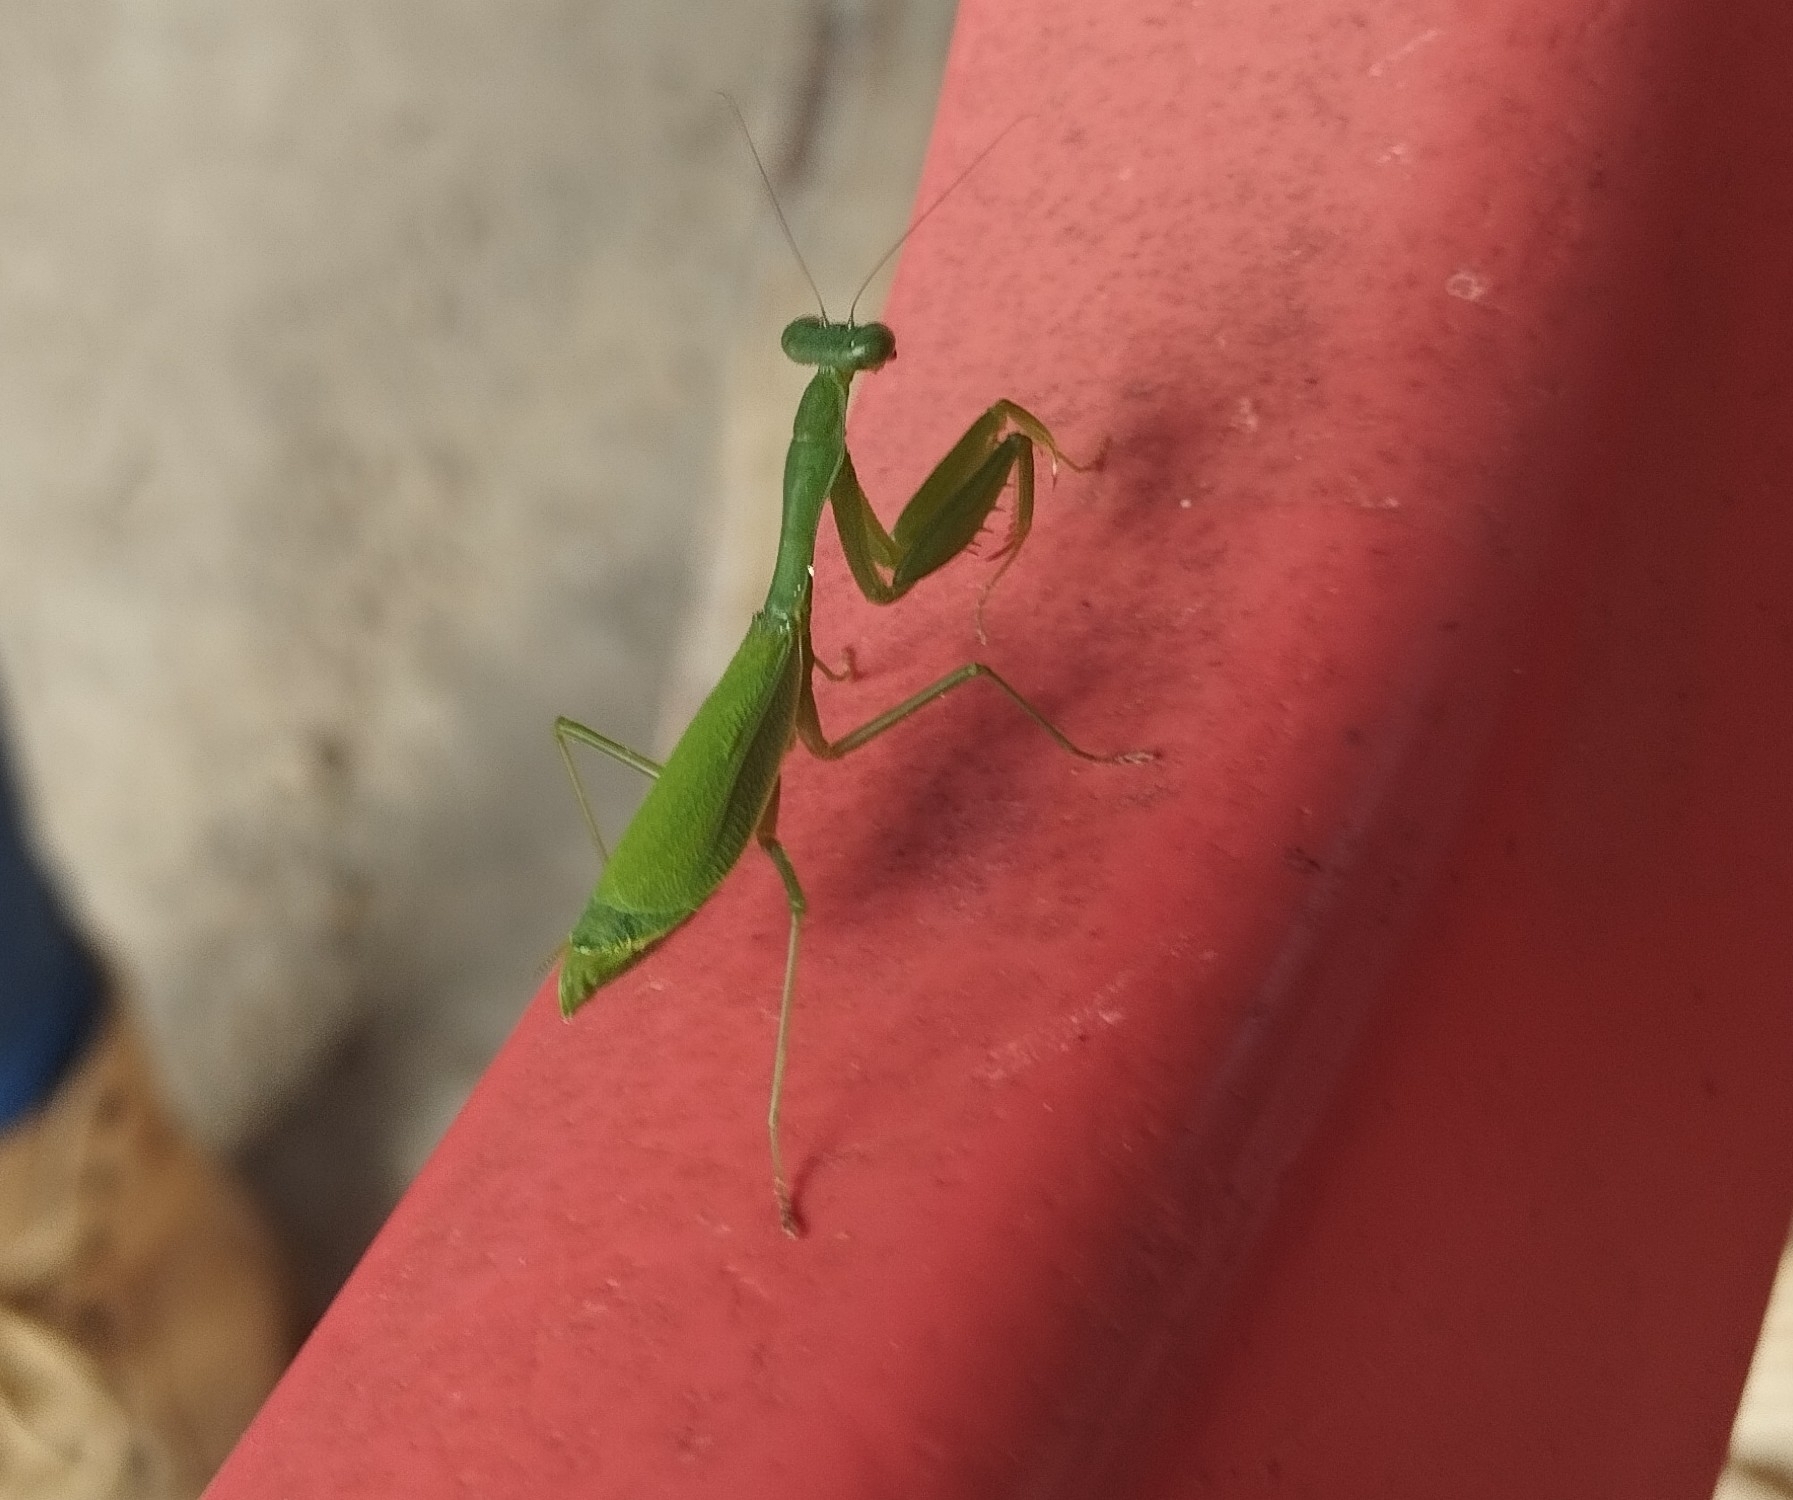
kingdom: Animalia
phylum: Arthropoda
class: Insecta
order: Mantodea
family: Mantidae
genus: Stagmomantis
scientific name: Stagmomantis fraterna
